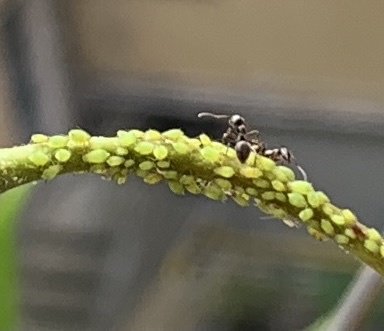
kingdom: Animalia
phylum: Arthropoda
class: Insecta
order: Hemiptera
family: Aphididae
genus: Aphis
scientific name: Aphis spiraecola
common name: Spirea aphid
